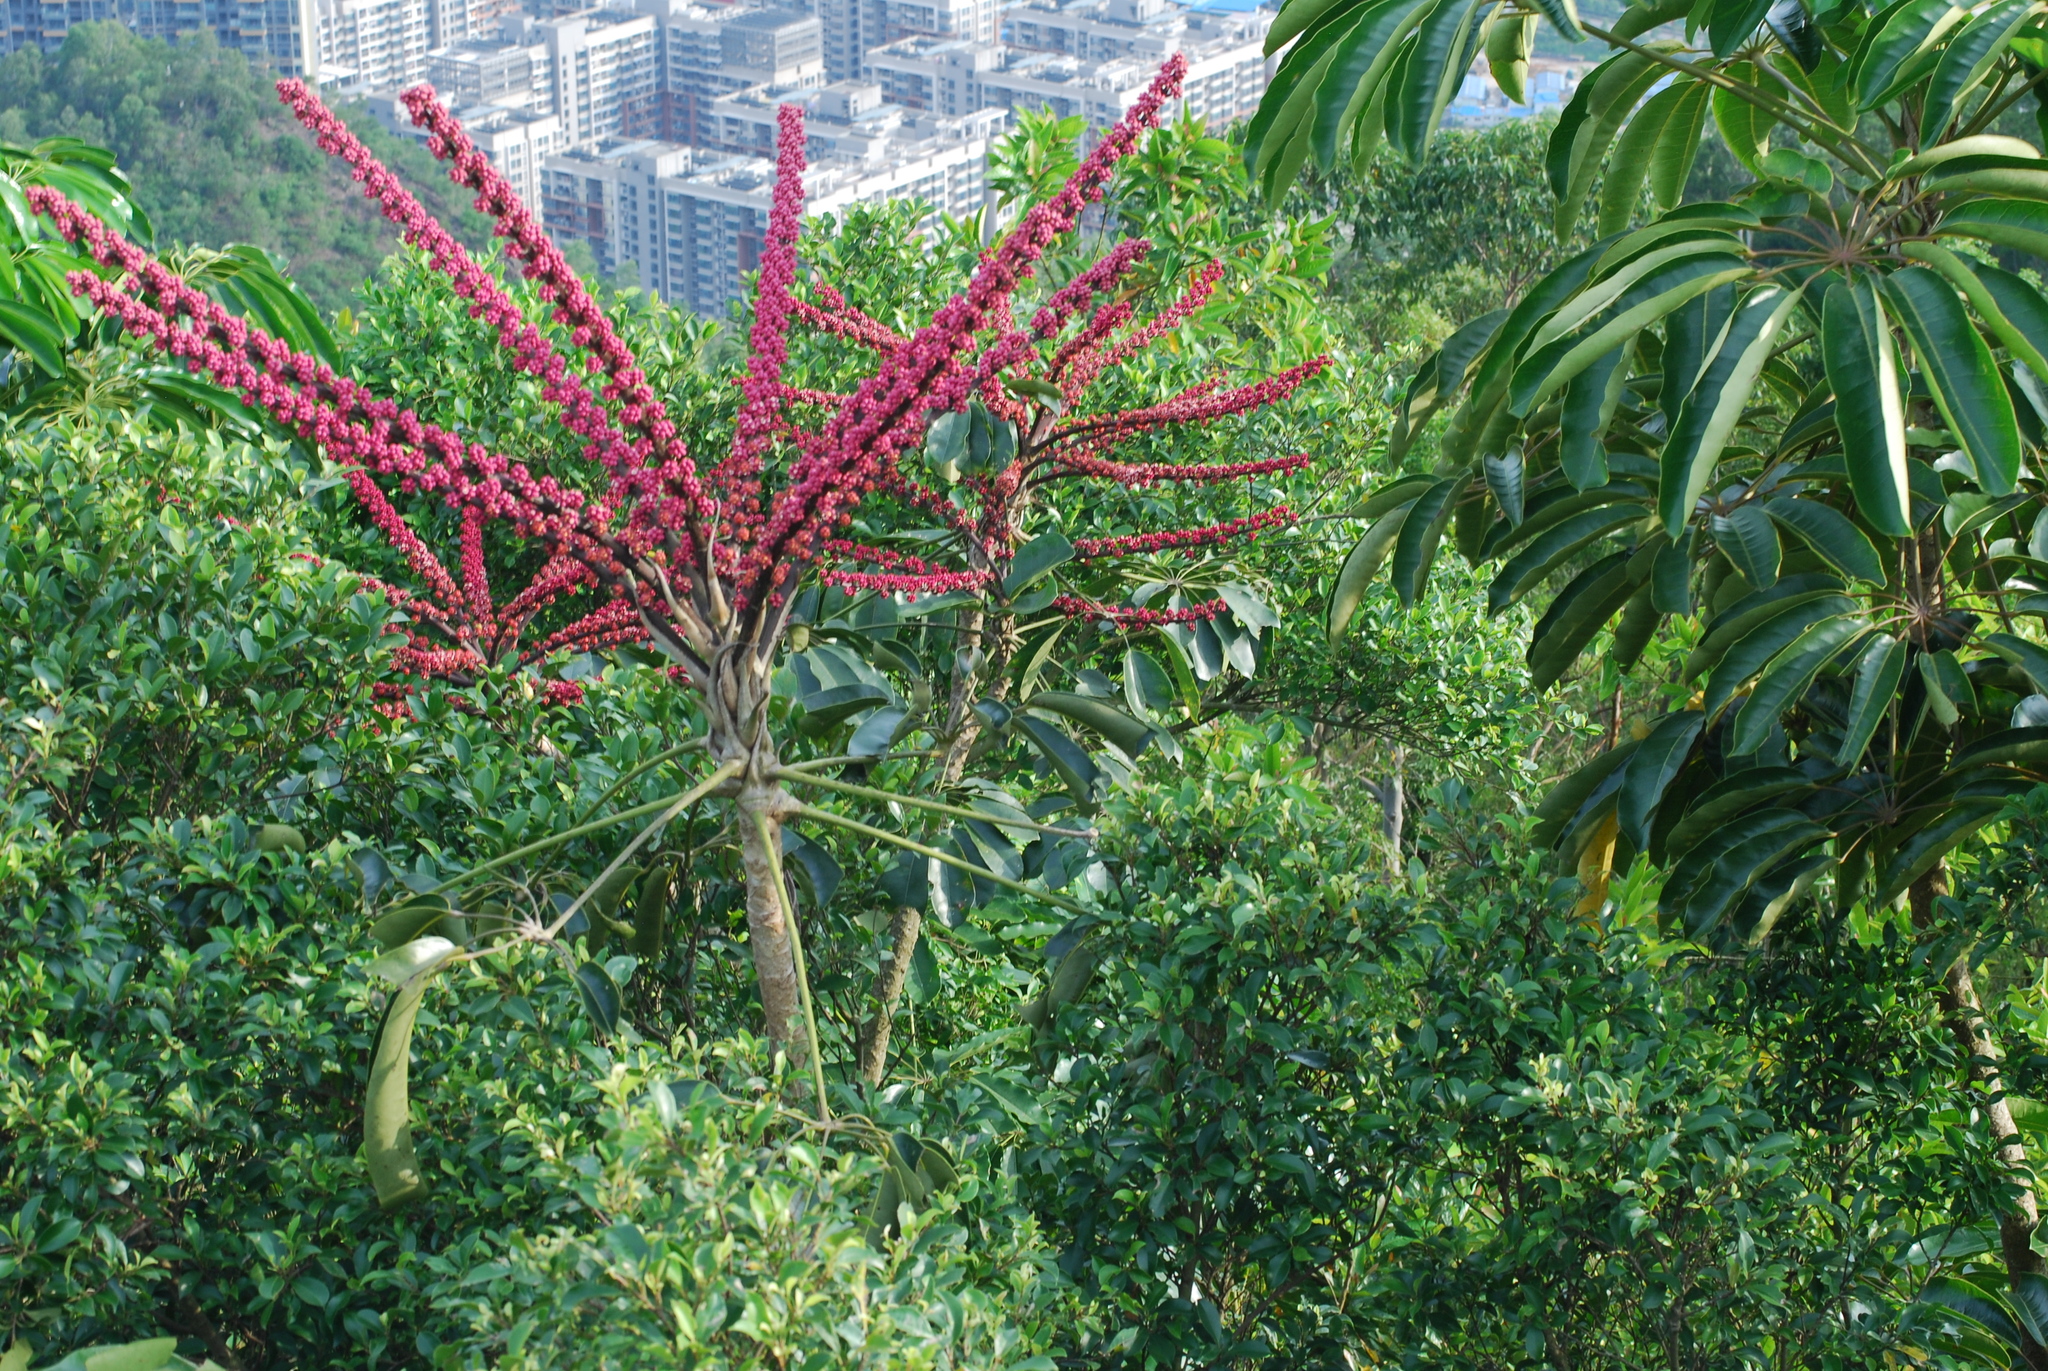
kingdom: Plantae
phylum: Tracheophyta
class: Magnoliopsida
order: Apiales
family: Araliaceae
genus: Heptapleurum
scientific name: Heptapleurum actinophyllum
